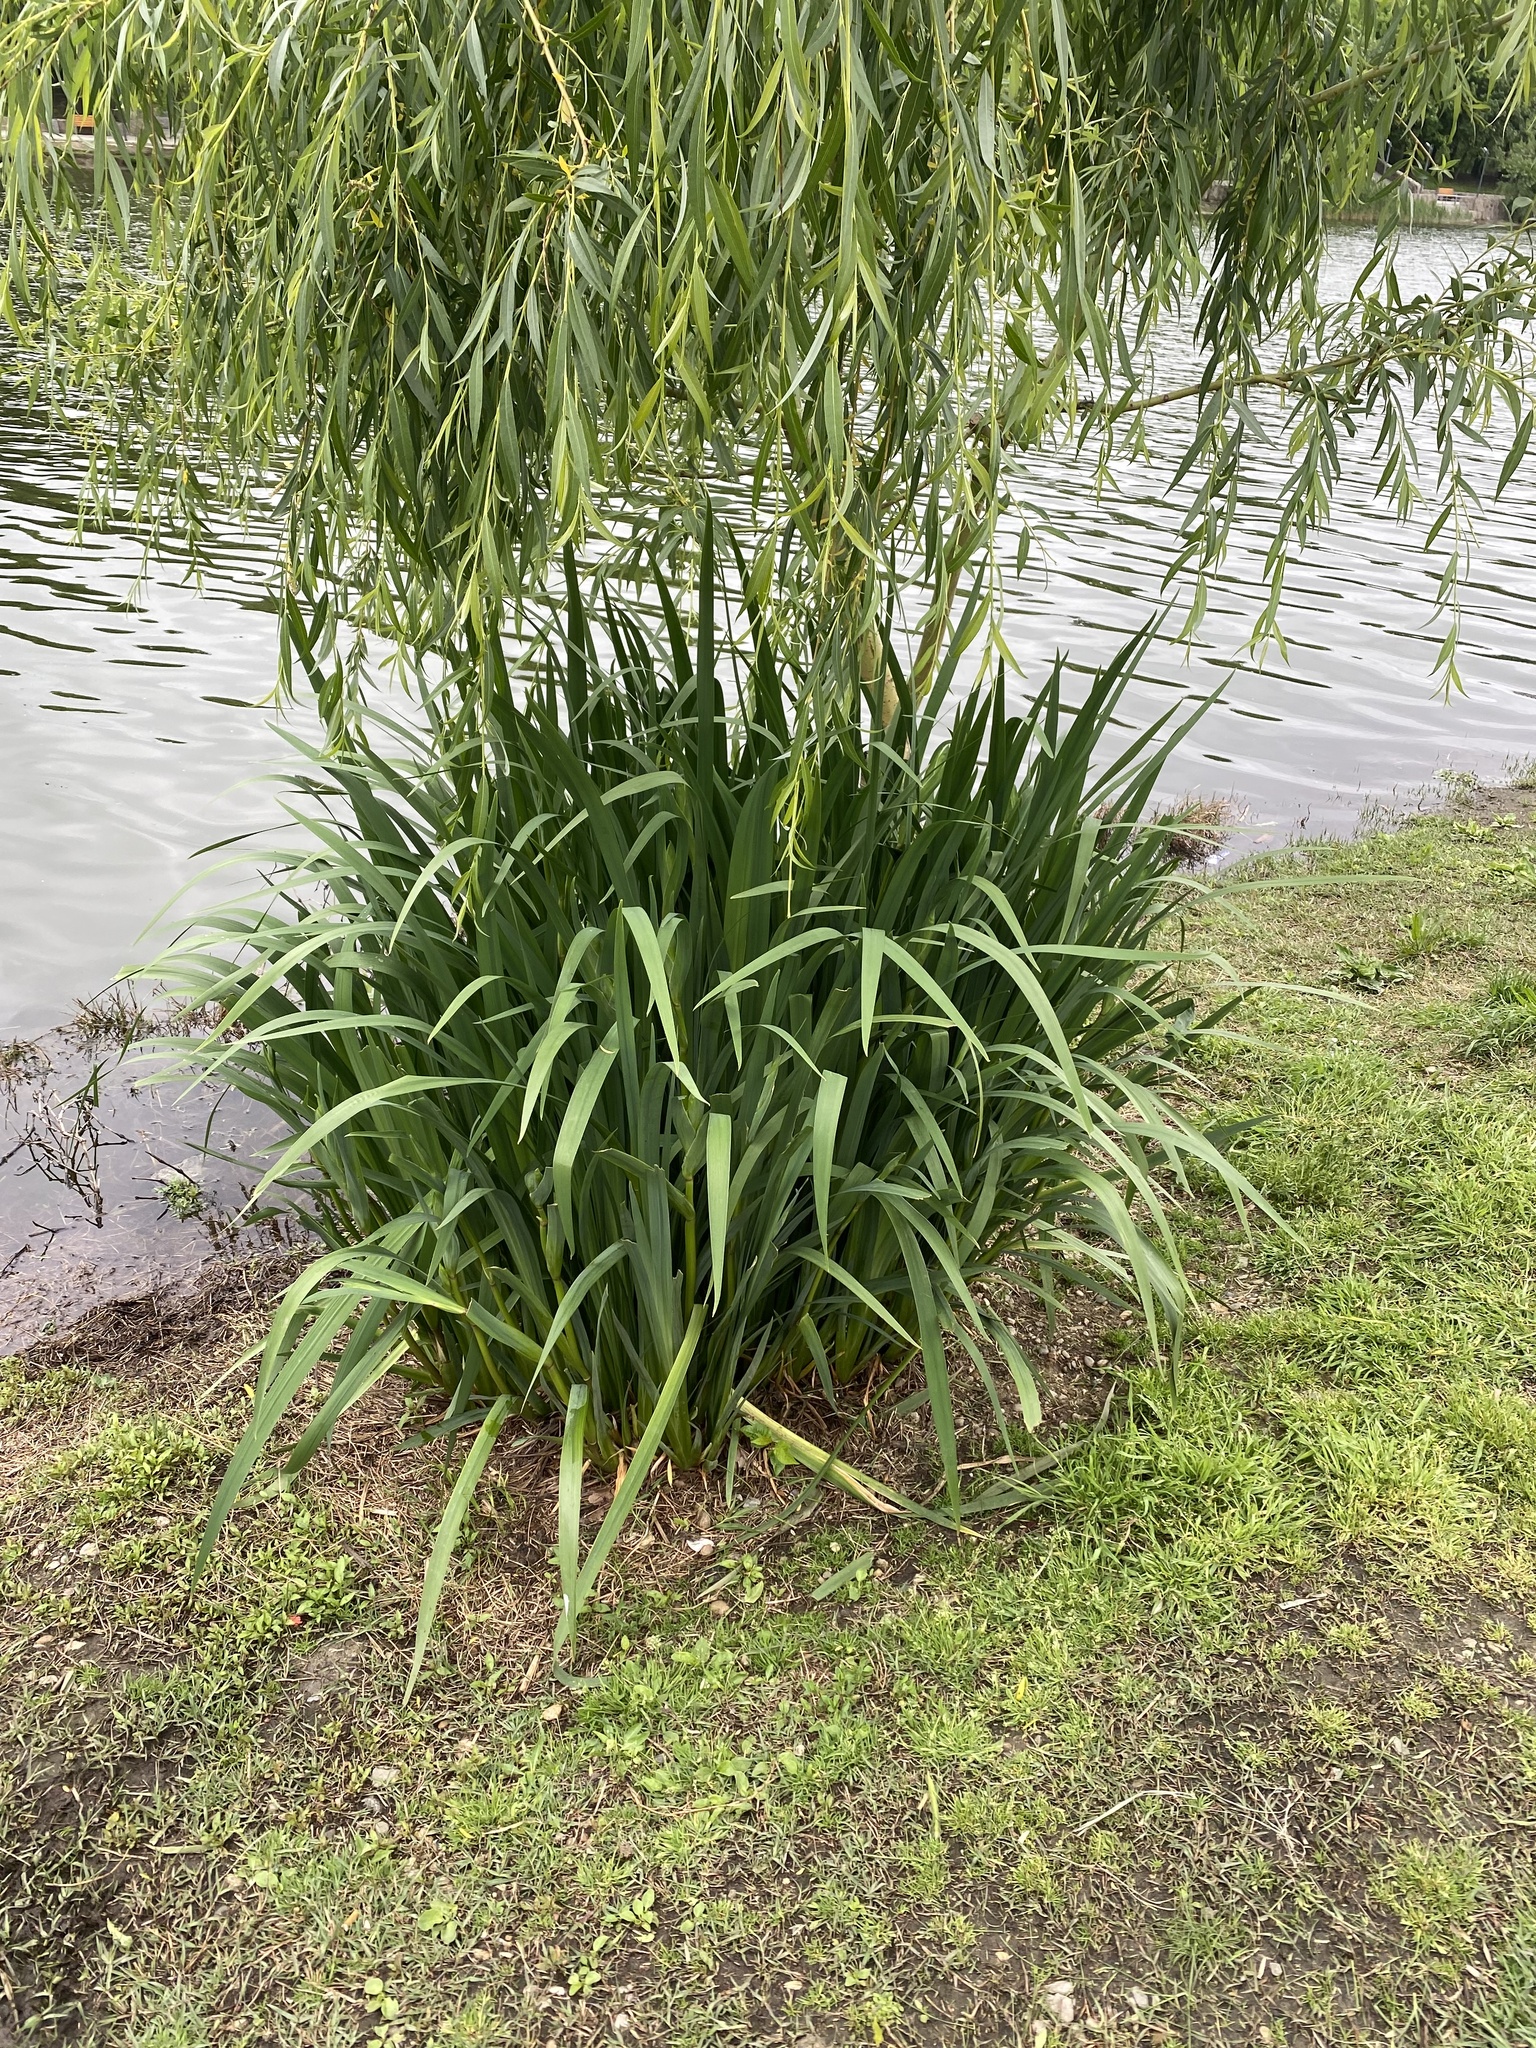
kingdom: Plantae
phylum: Tracheophyta
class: Liliopsida
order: Asparagales
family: Iridaceae
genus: Iris
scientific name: Iris pseudacorus
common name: Yellow flag
